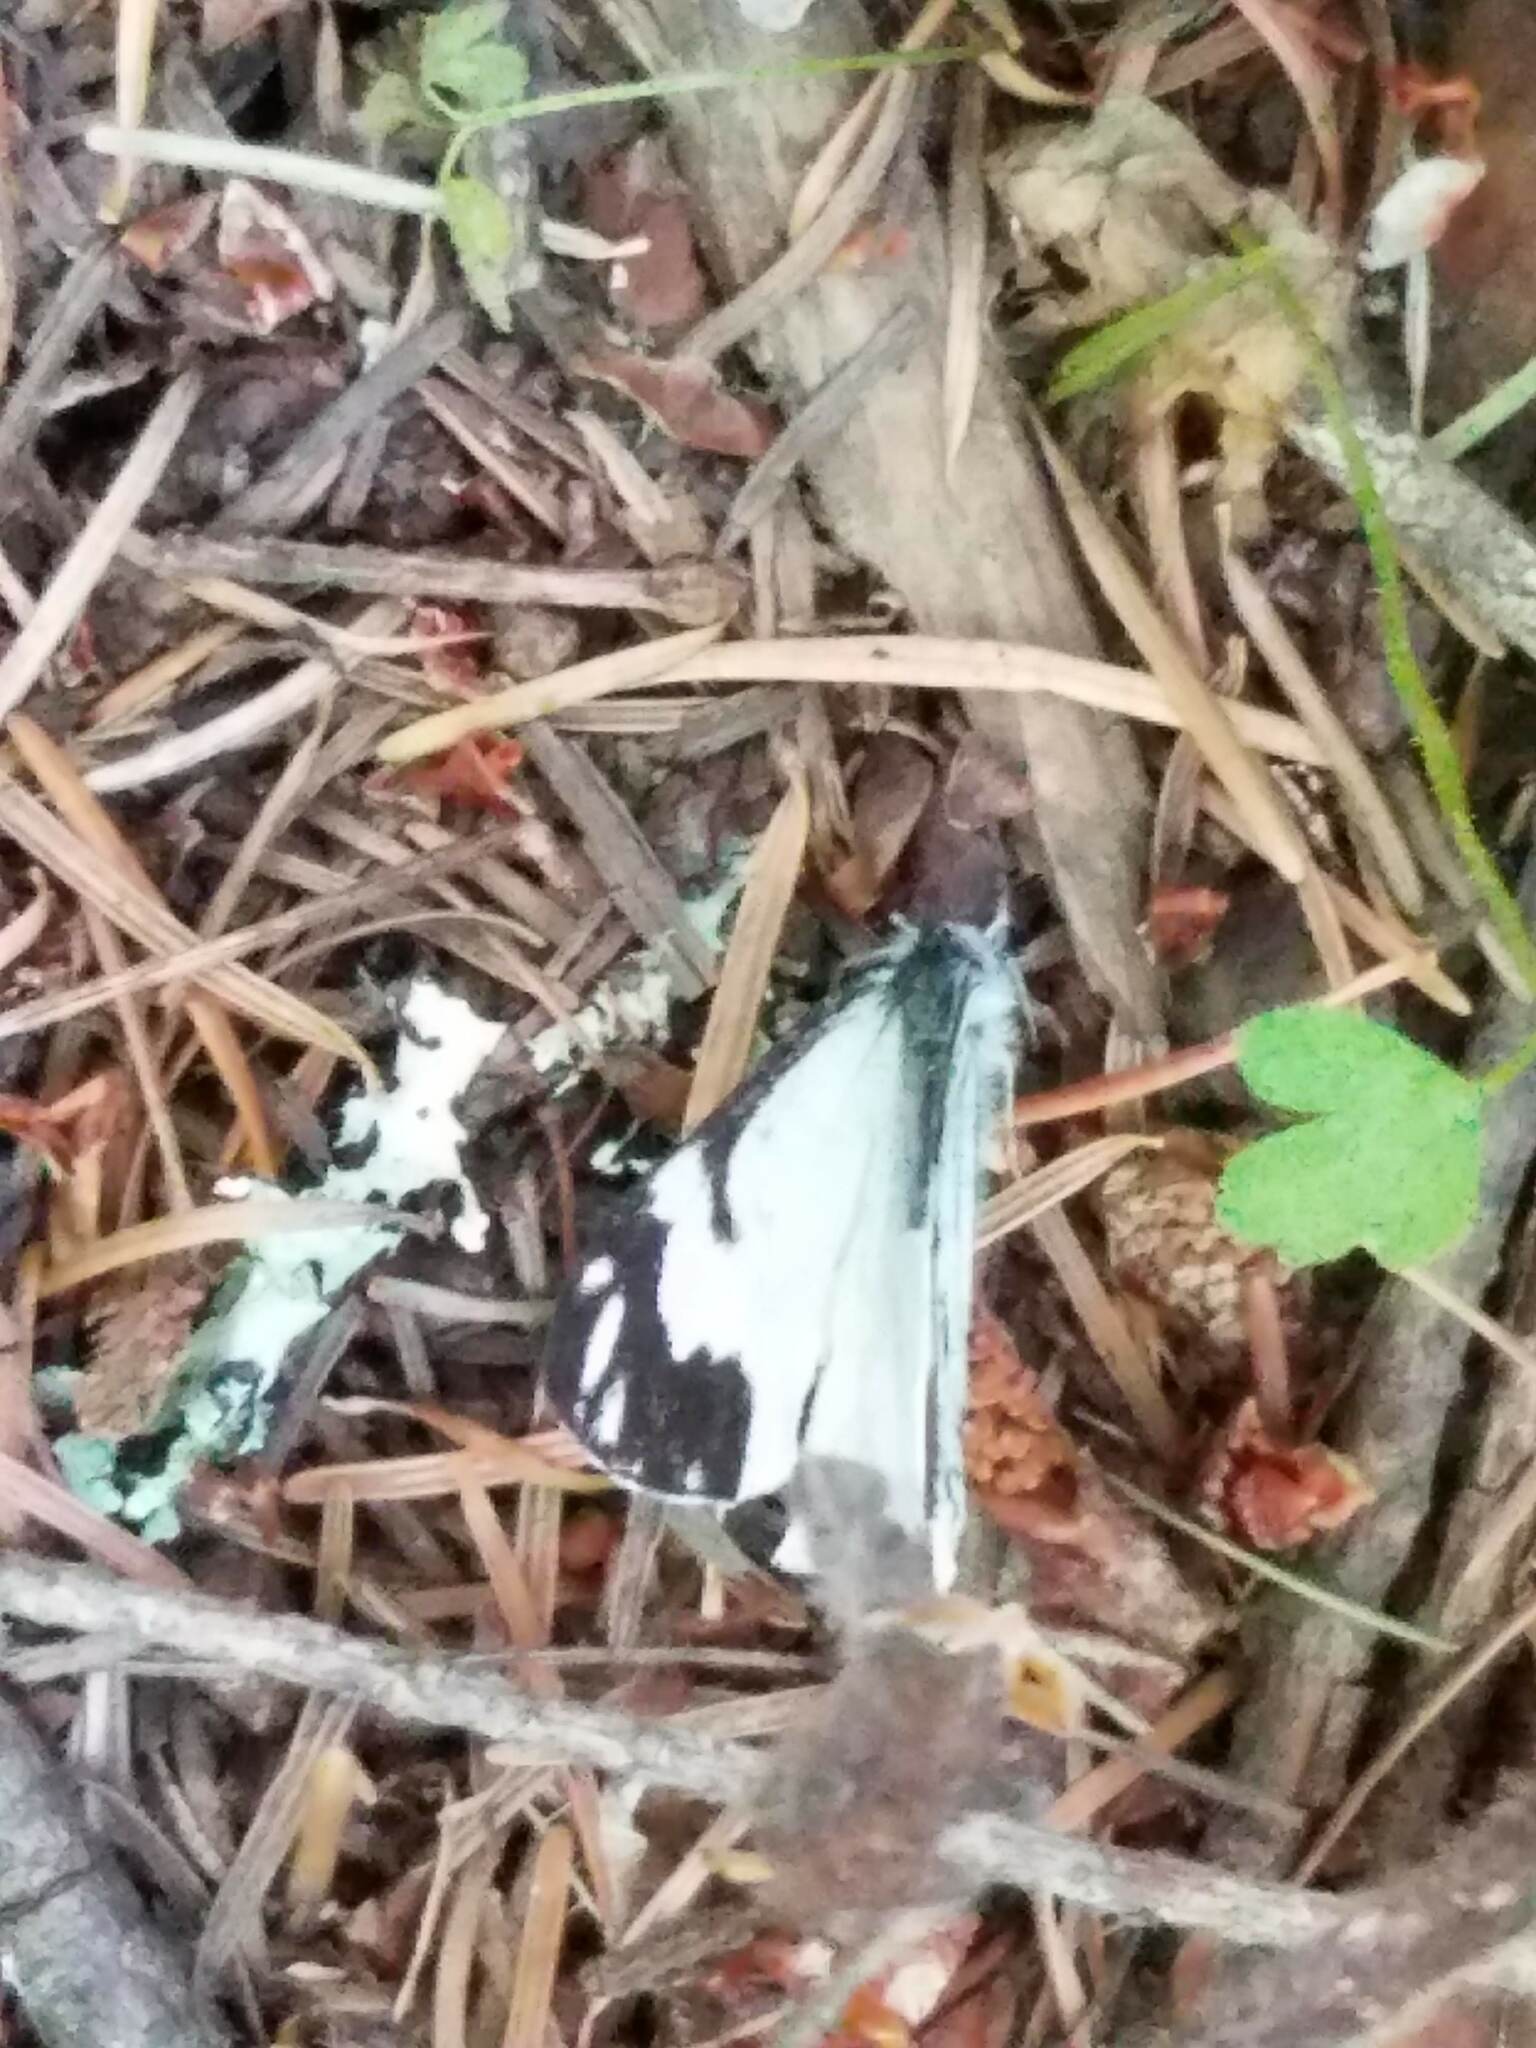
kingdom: Animalia
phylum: Arthropoda
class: Insecta
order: Lepidoptera
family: Pieridae
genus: Neophasia
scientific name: Neophasia menapia
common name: Pine white
